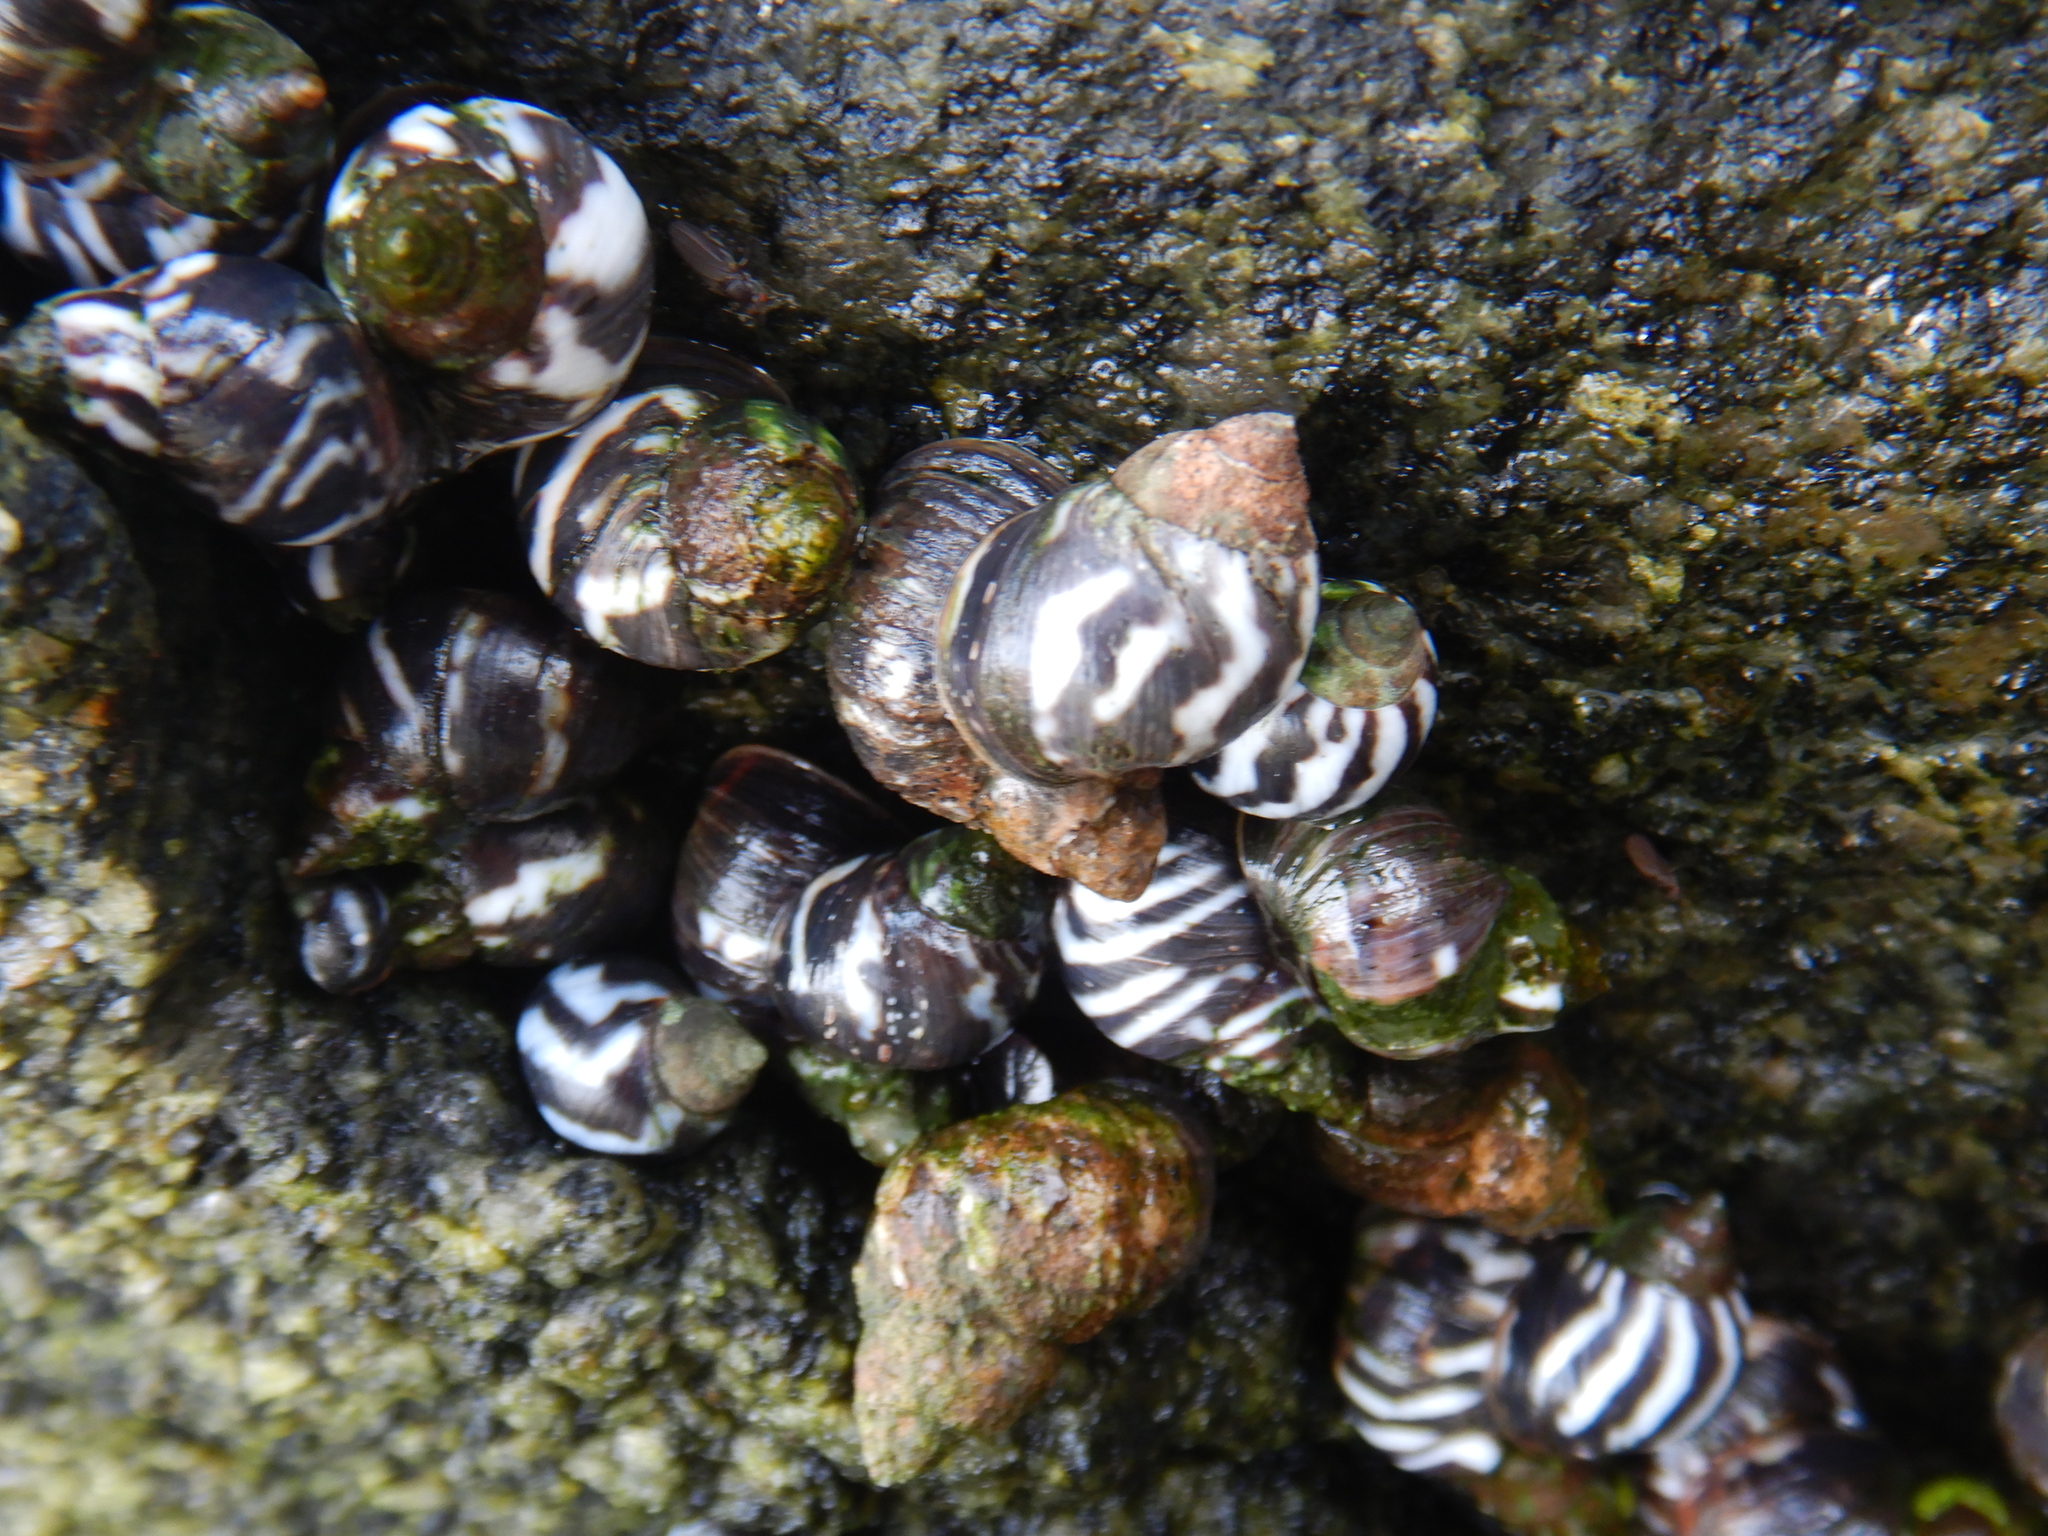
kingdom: Animalia
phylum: Mollusca
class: Gastropoda
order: Littorinimorpha
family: Littorinidae
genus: Echinolittorina
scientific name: Echinolittorina peruviana
